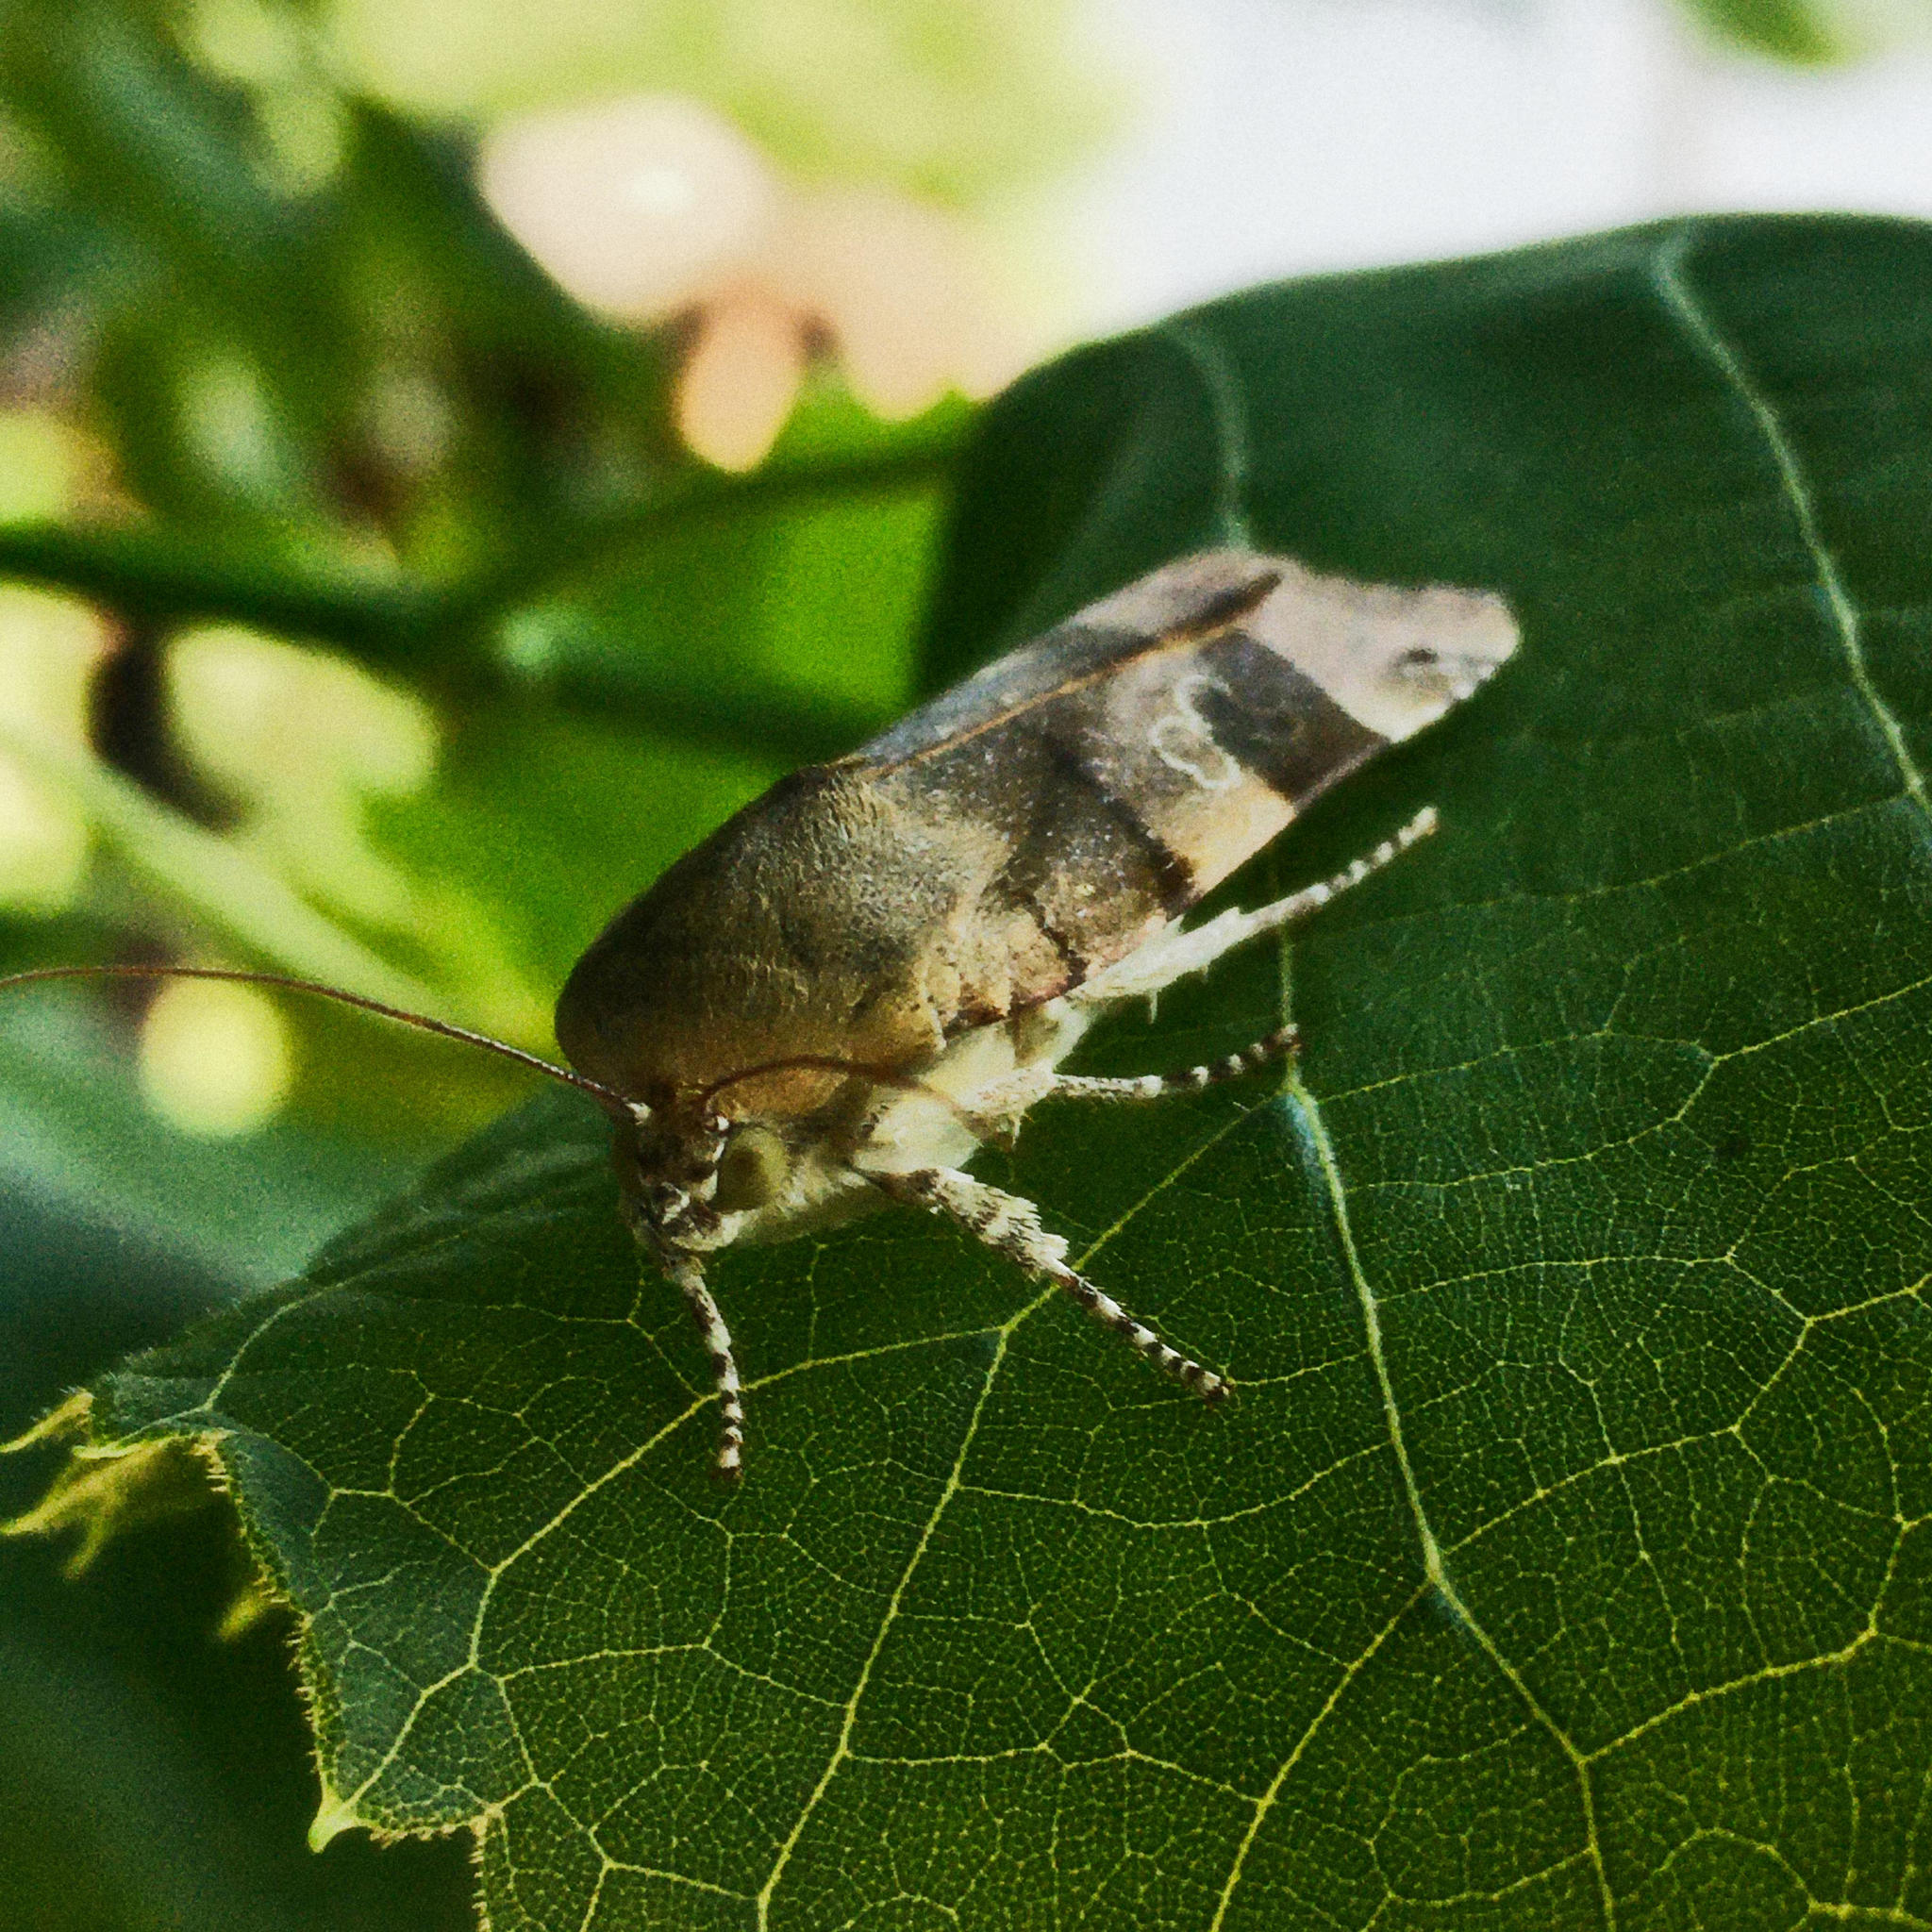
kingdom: Animalia
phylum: Arthropoda
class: Insecta
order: Lepidoptera
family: Noctuidae
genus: Noctua
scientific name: Noctua fimbriata
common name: Broad-bordered yellow underwing
